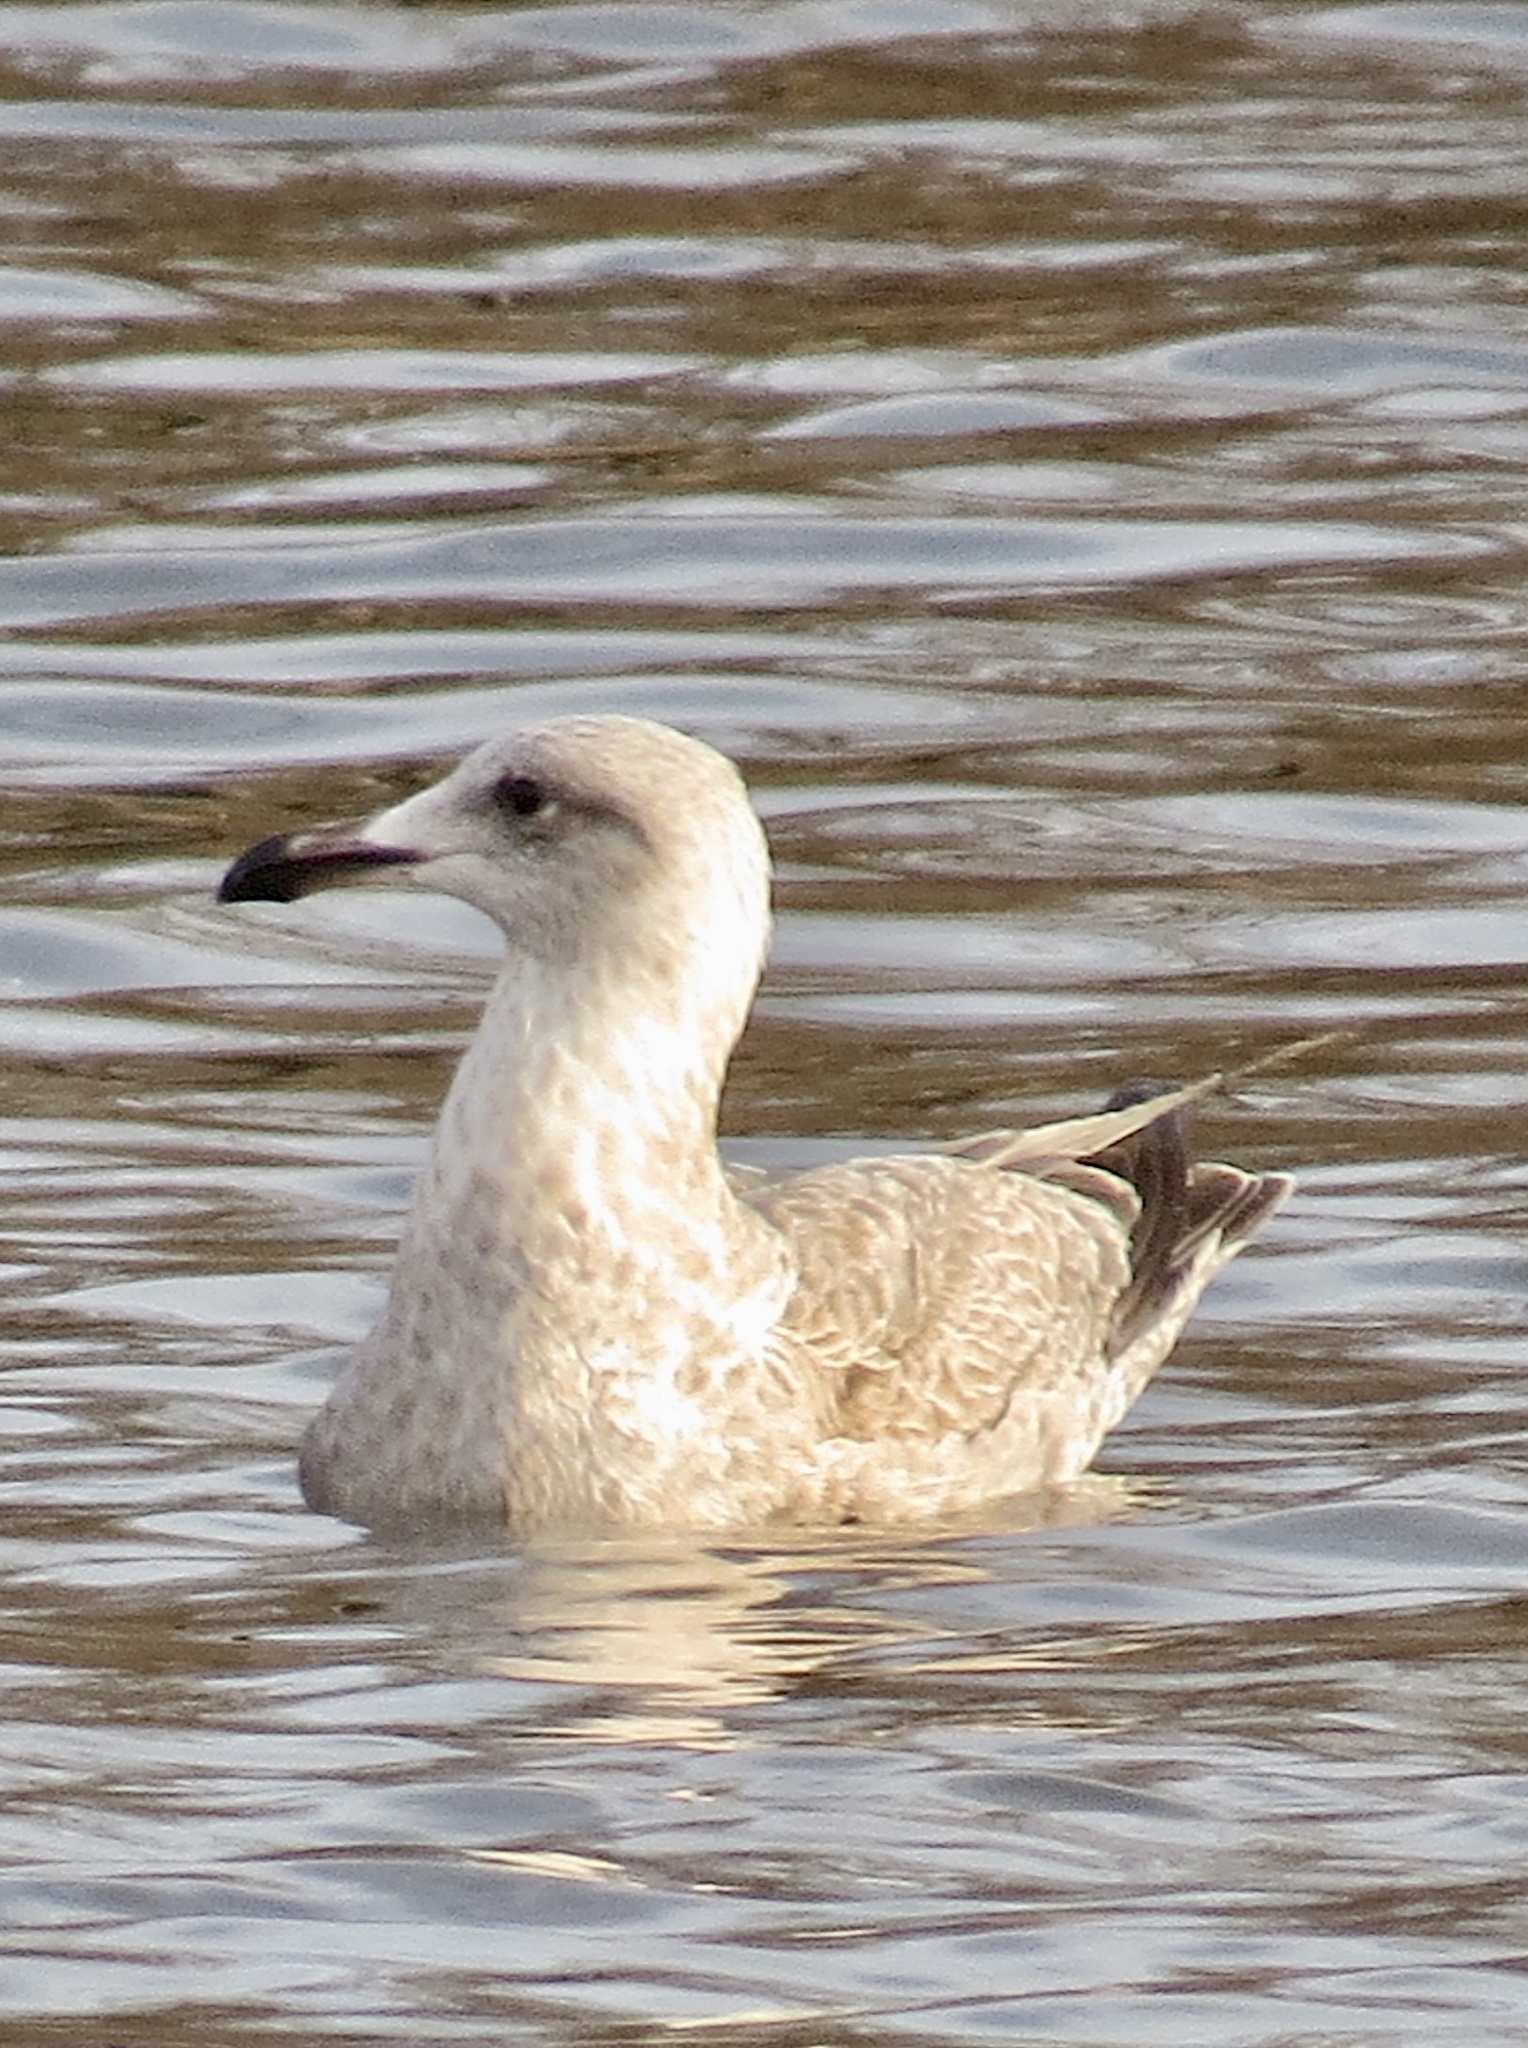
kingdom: Animalia
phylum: Chordata
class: Aves
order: Charadriiformes
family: Laridae
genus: Larus
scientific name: Larus argentatus
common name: Herring gull
